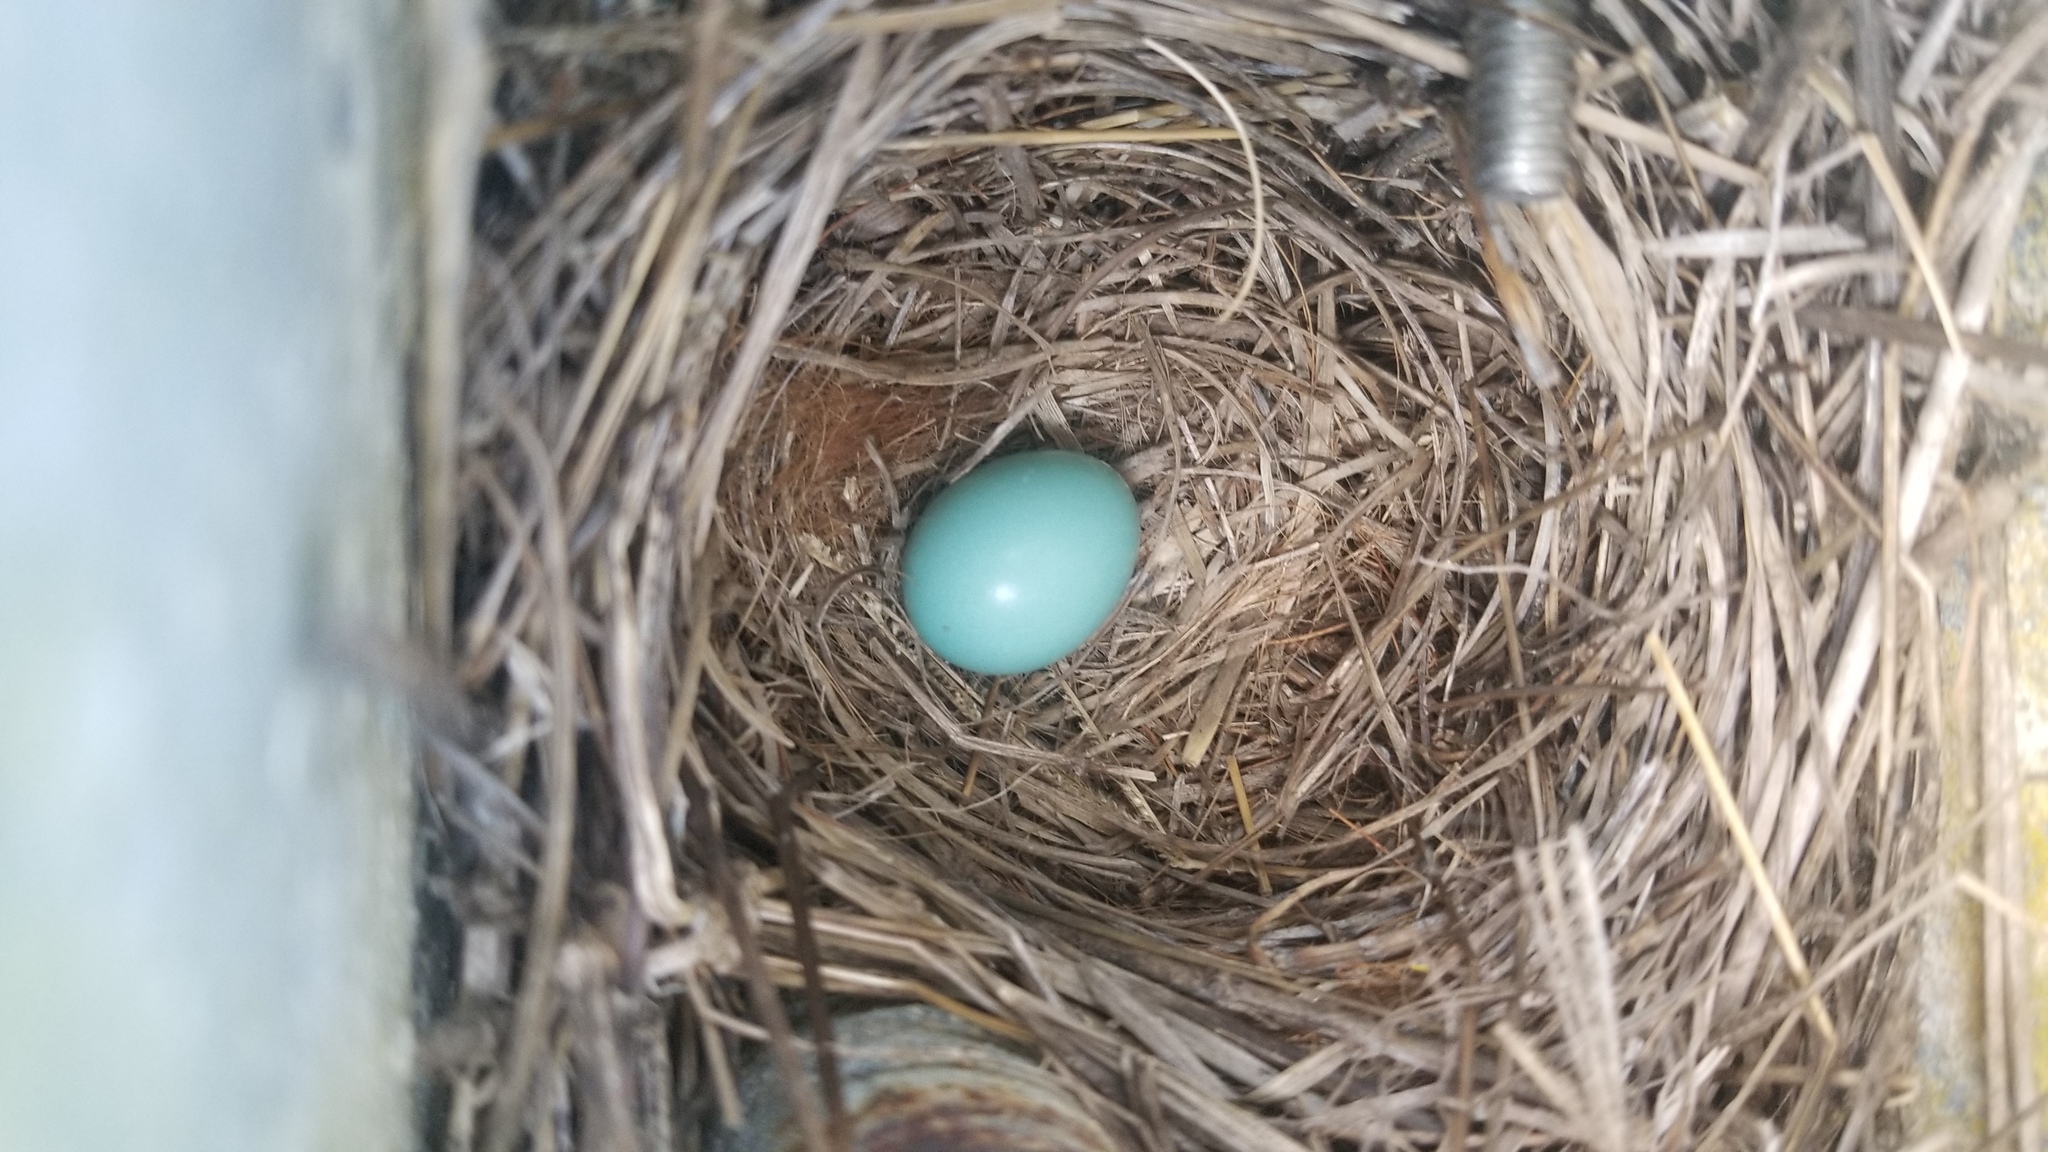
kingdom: Animalia
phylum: Chordata
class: Aves
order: Passeriformes
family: Turdidae
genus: Sialia
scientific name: Sialia sialis
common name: Eastern bluebird
